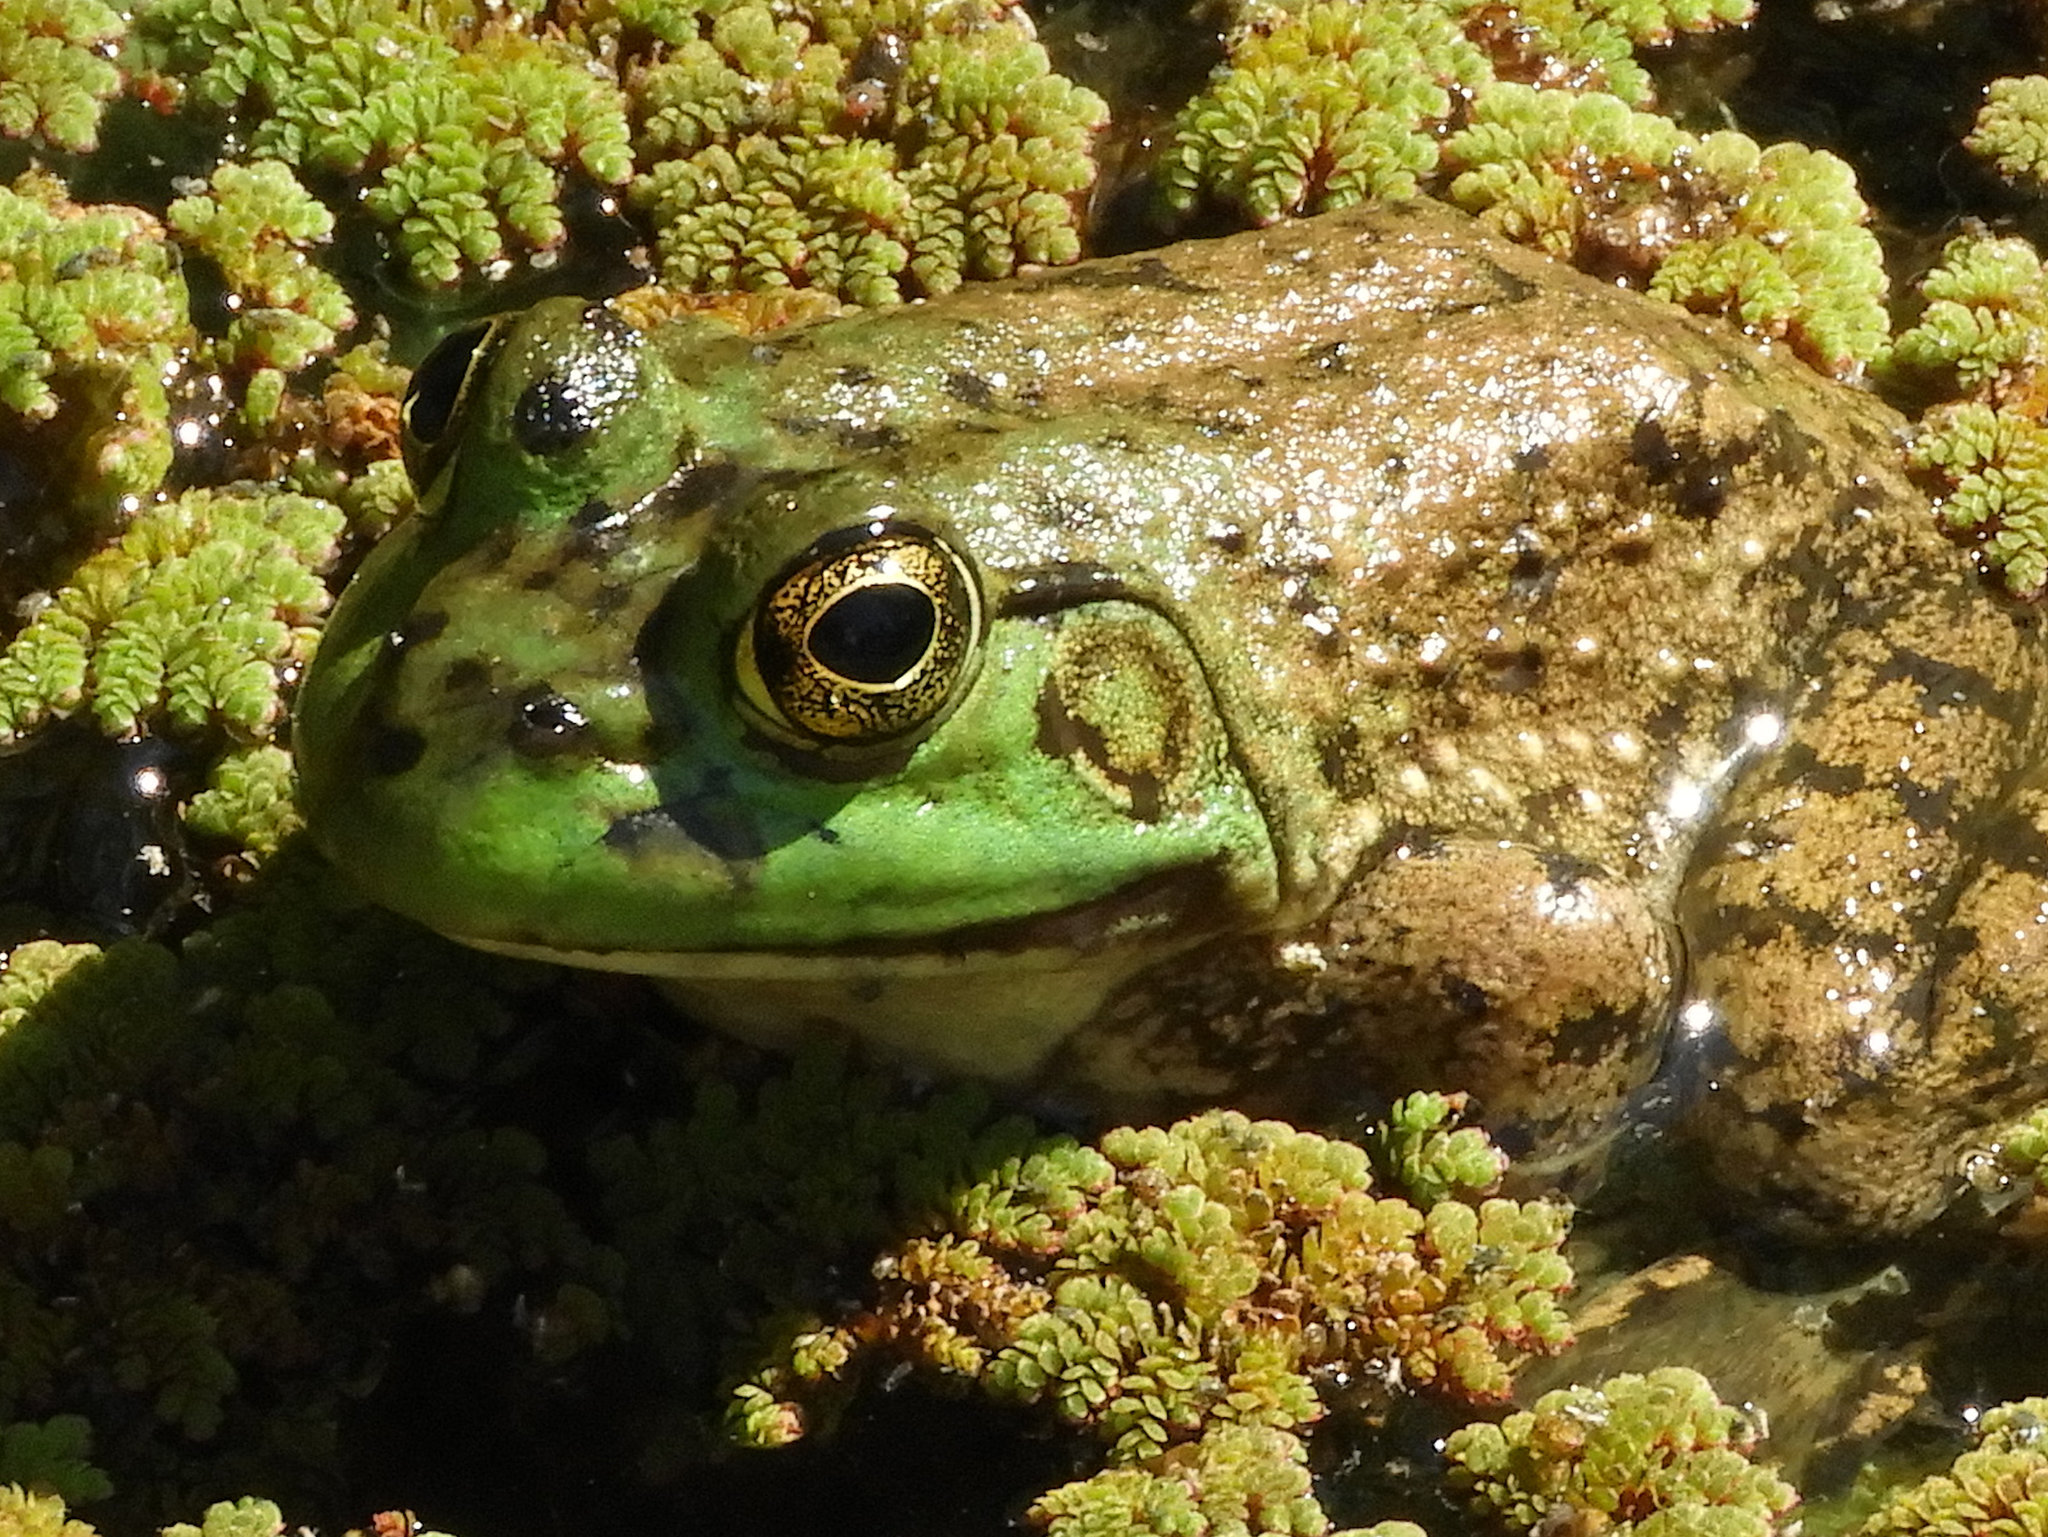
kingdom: Animalia
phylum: Chordata
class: Amphibia
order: Anura
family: Ranidae
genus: Lithobates
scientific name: Lithobates catesbeianus
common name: American bullfrog
